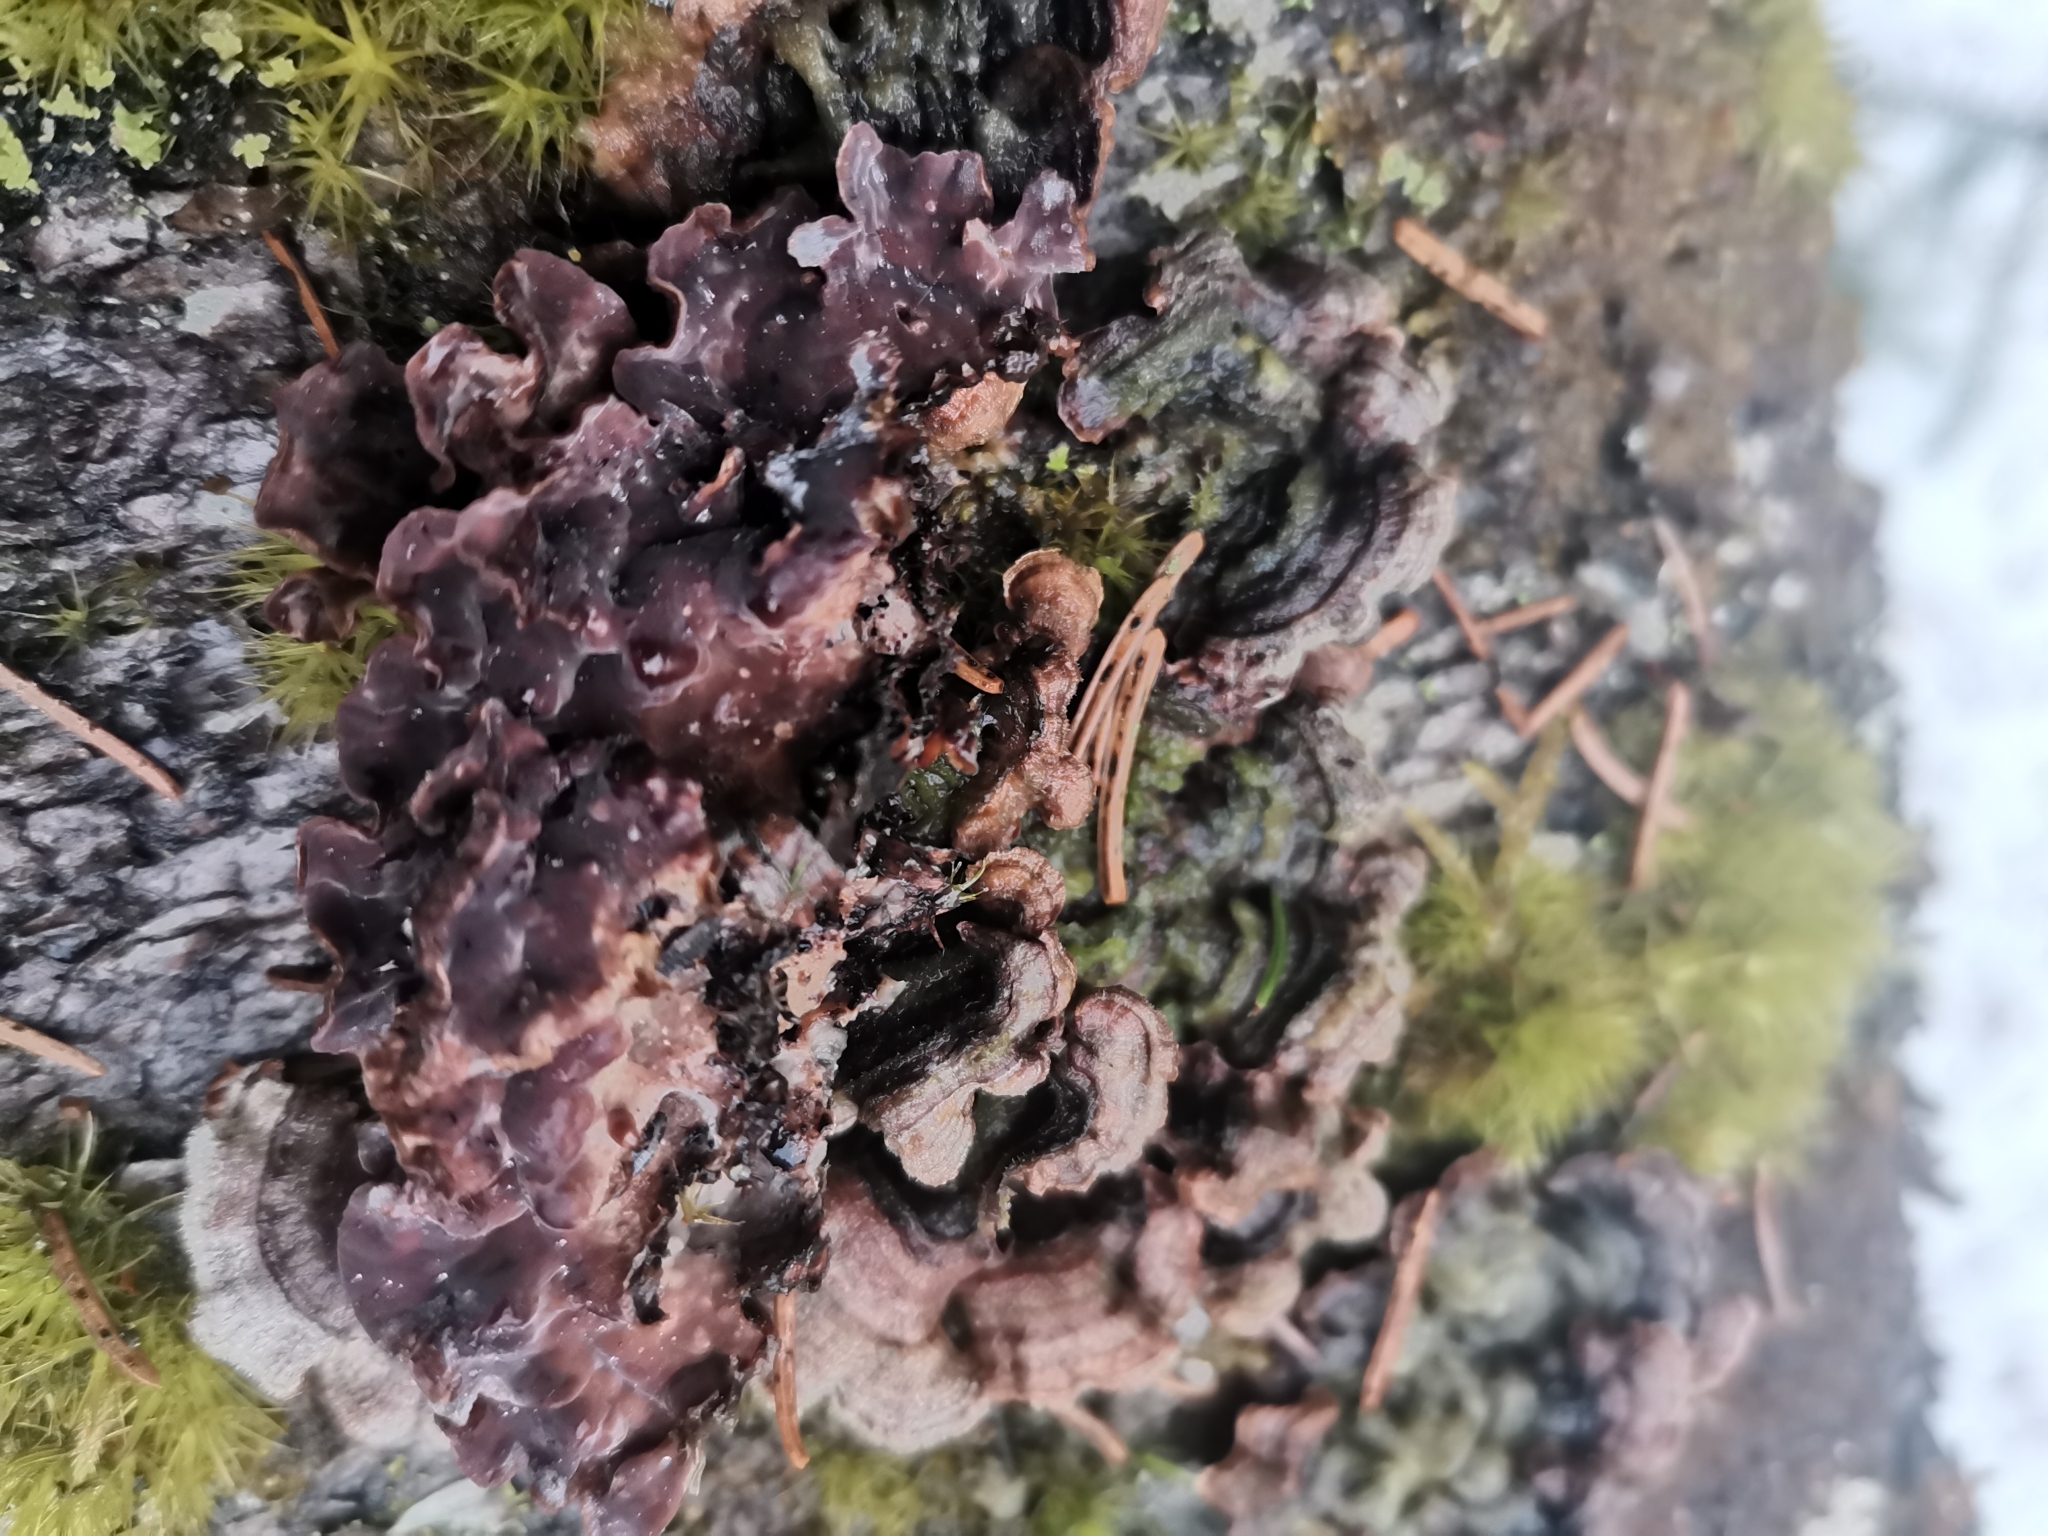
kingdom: Fungi
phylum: Basidiomycota
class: Agaricomycetes
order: Agaricales
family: Cyphellaceae
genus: Chondrostereum
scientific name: Chondrostereum purpureum
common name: Silver leaf disease
